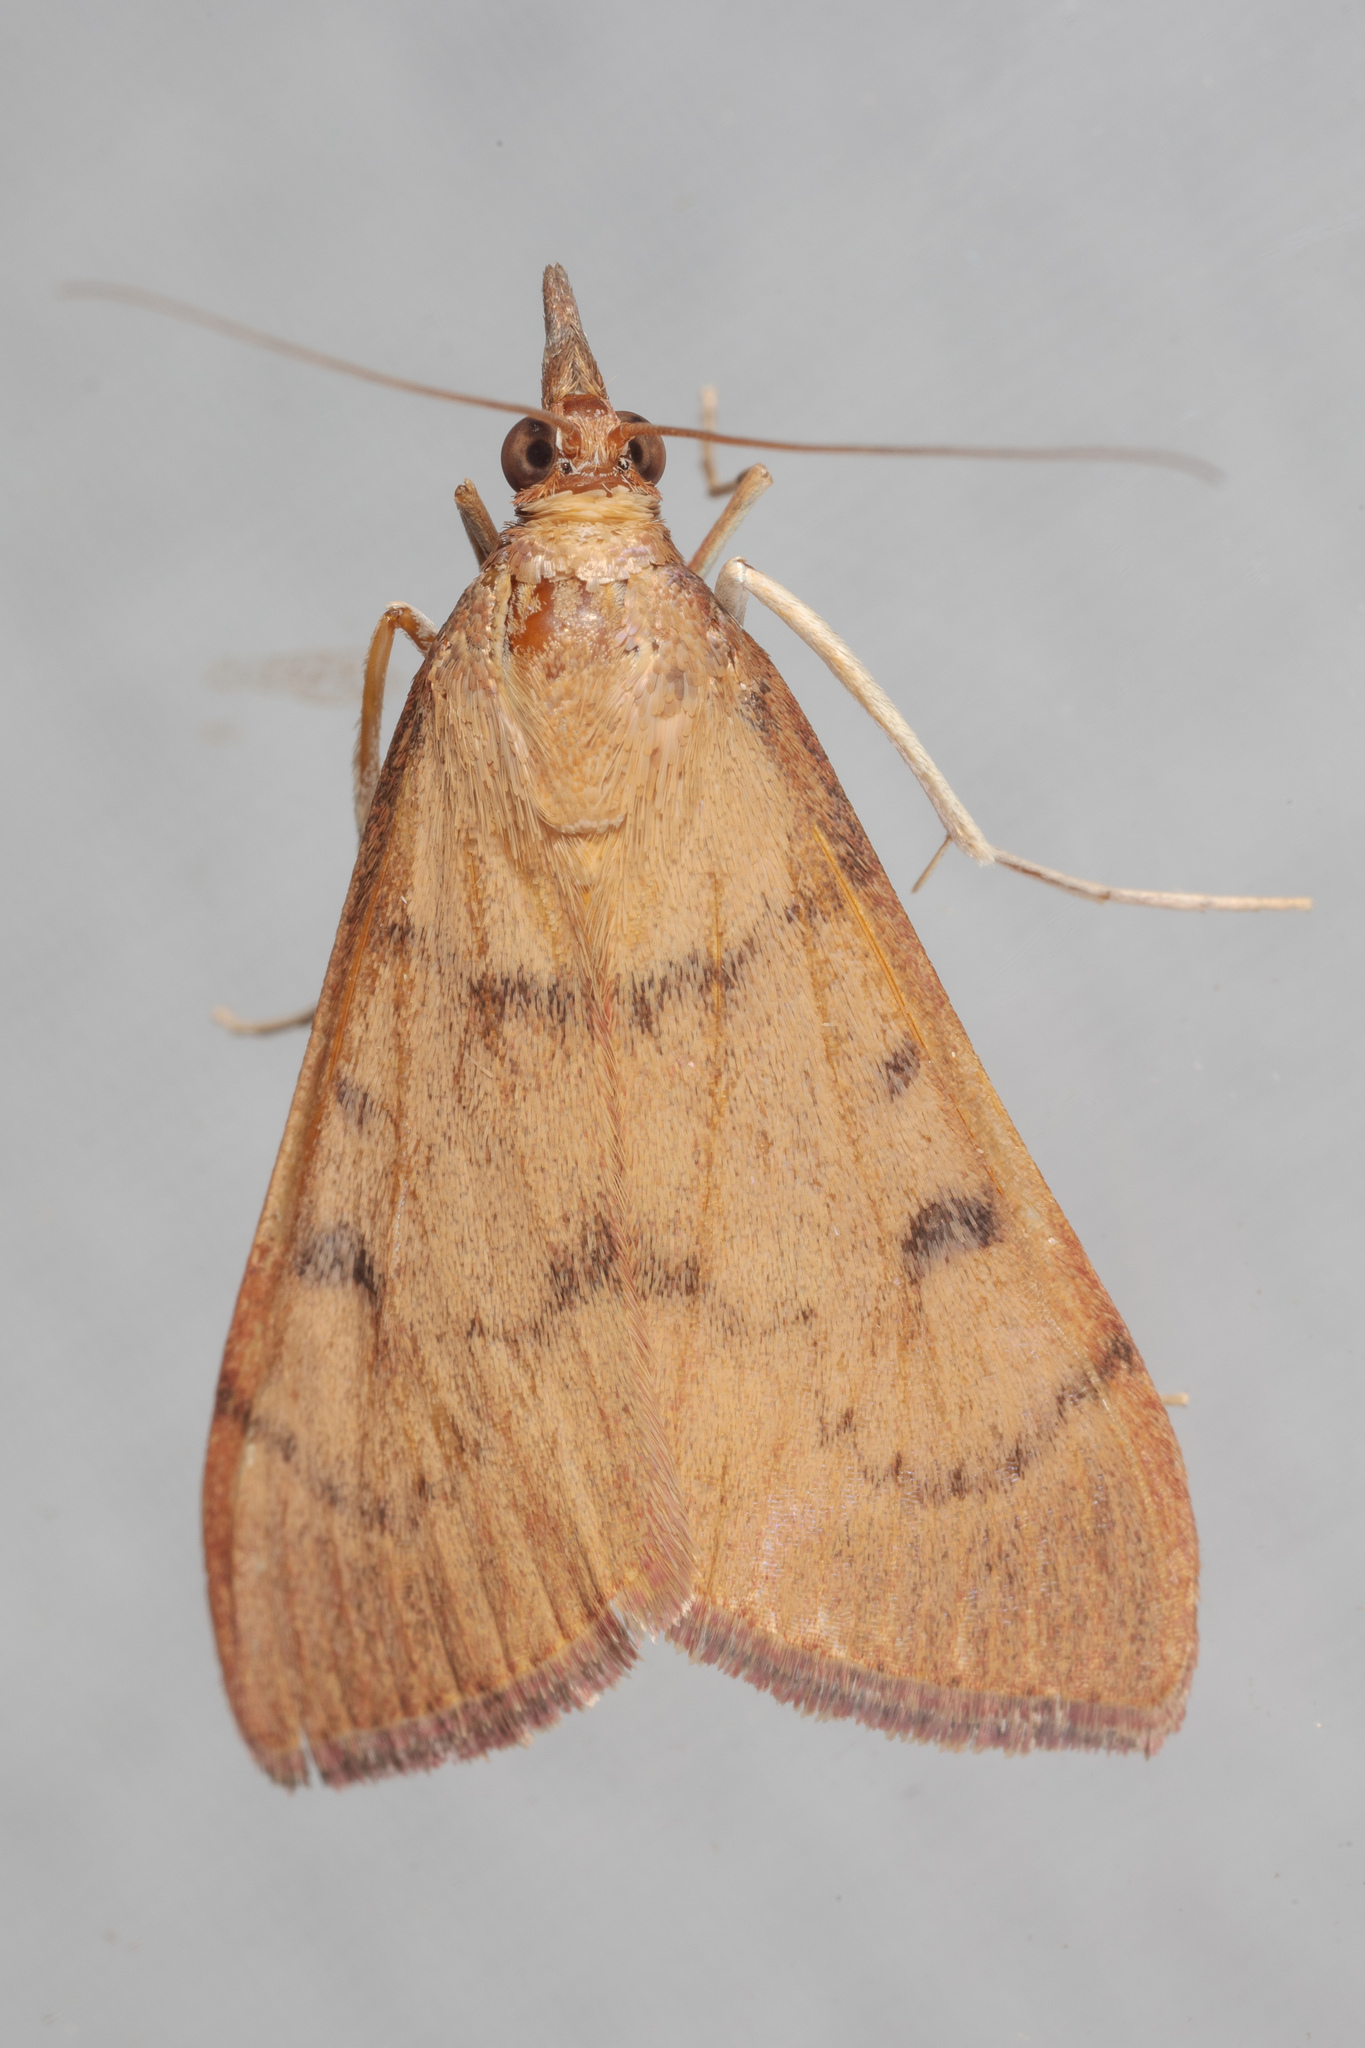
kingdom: Animalia
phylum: Arthropoda
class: Insecta
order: Lepidoptera
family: Crambidae
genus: Uresiphita
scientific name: Uresiphita reversalis
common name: Genista broom moth
